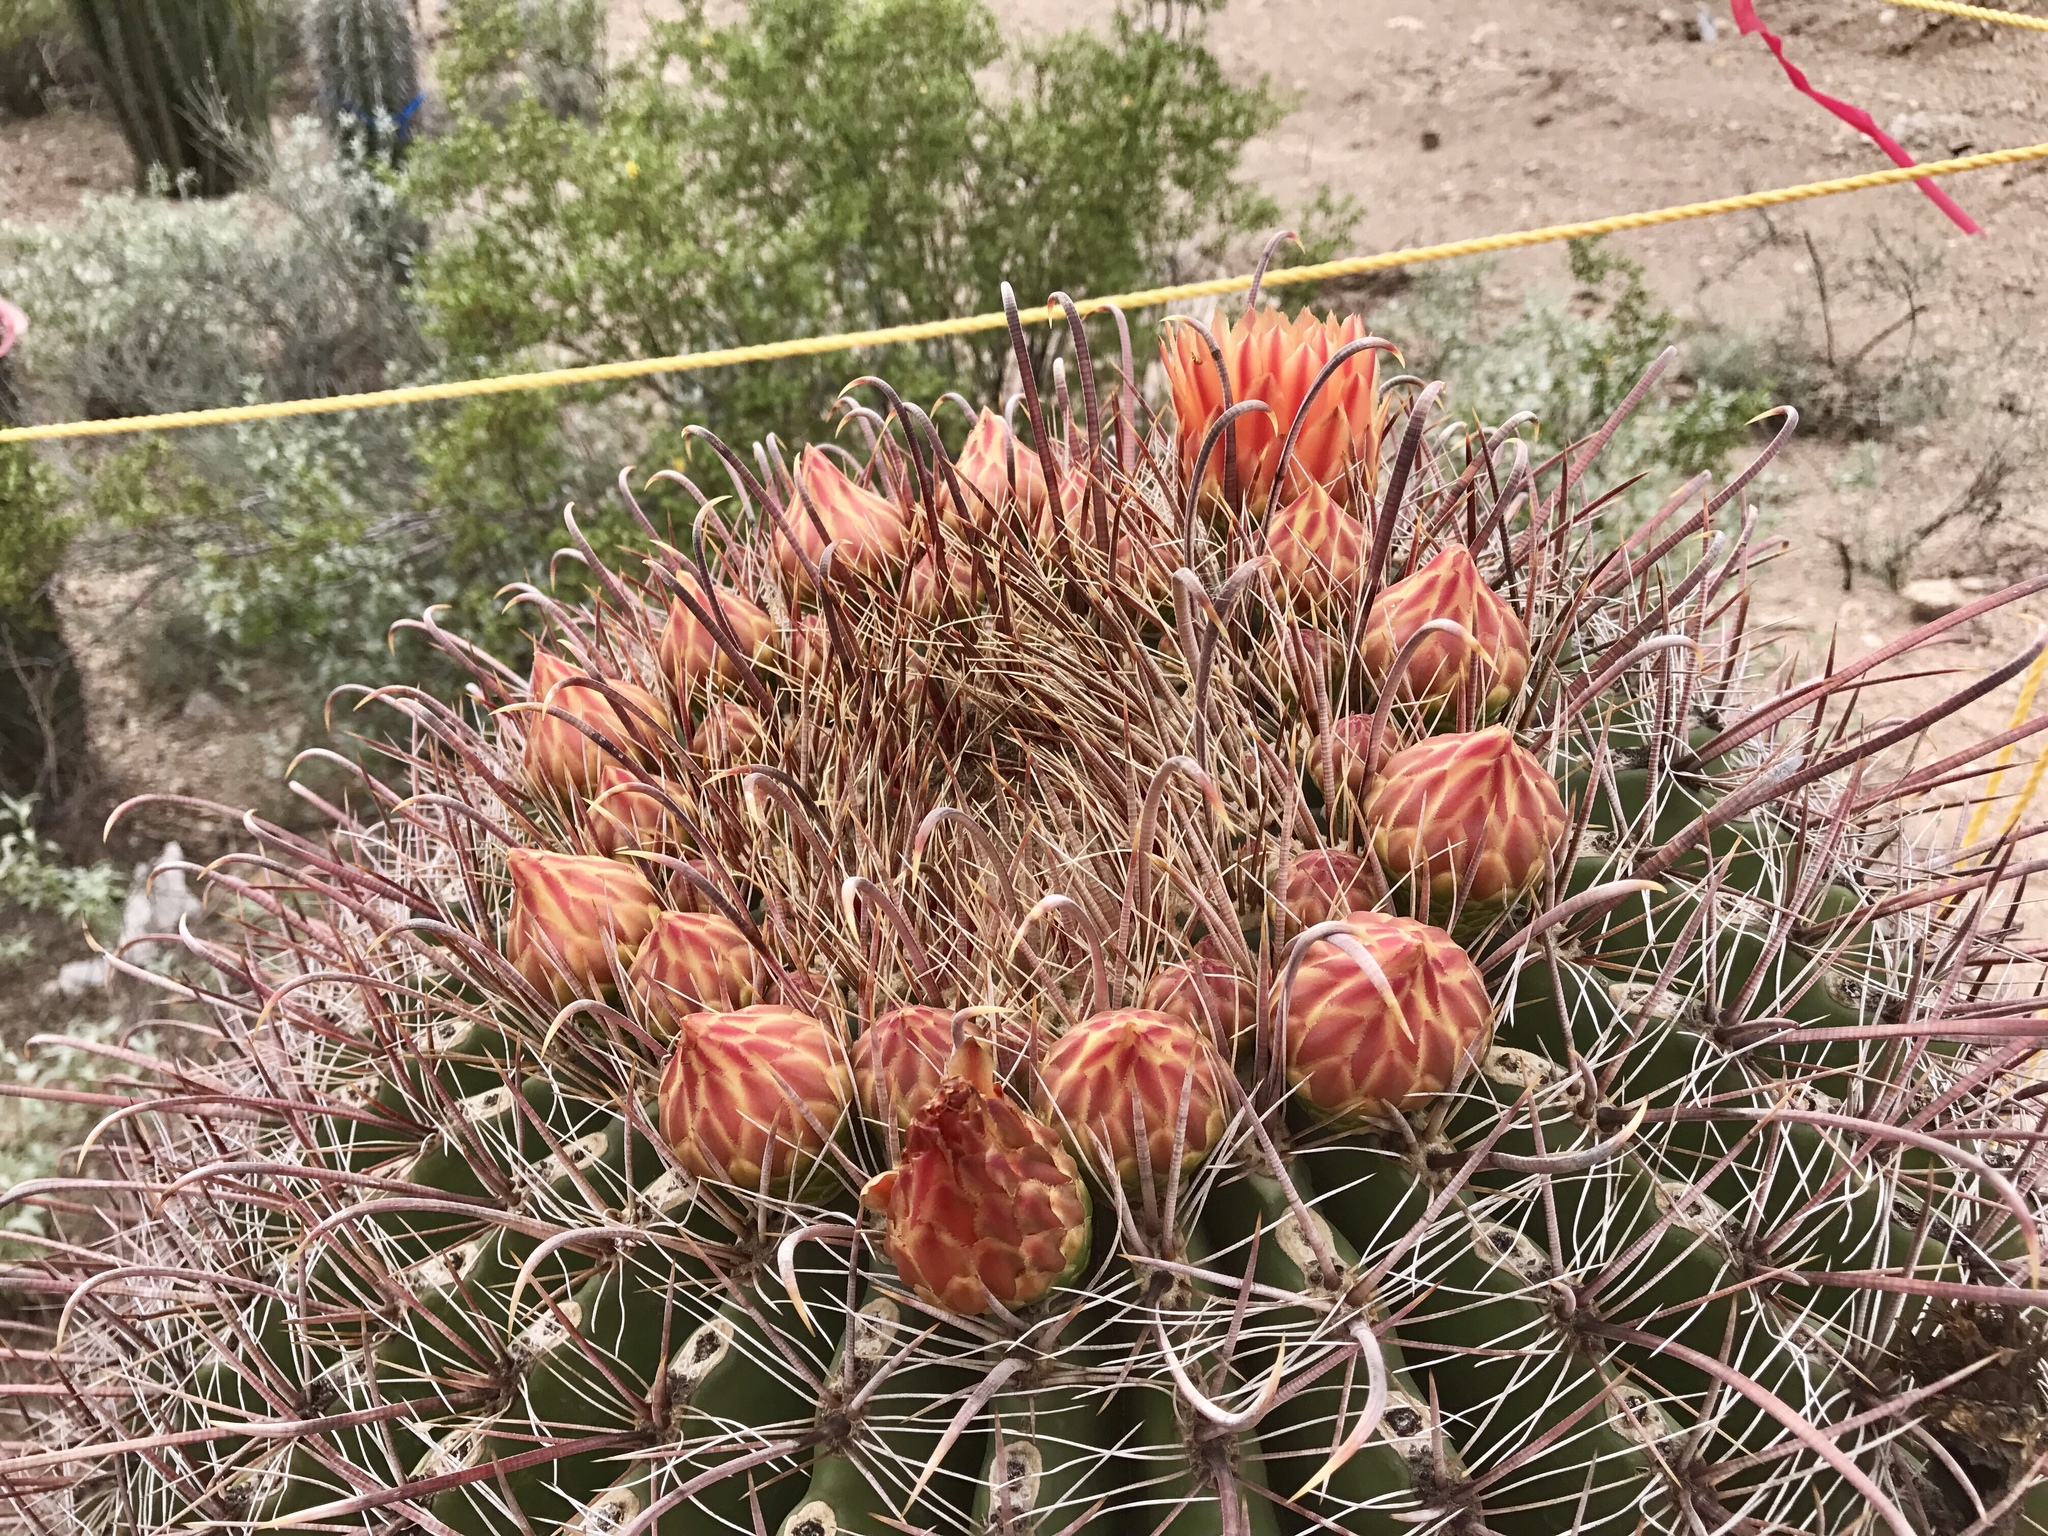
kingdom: Plantae
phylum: Tracheophyta
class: Magnoliopsida
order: Caryophyllales
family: Cactaceae
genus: Ferocactus
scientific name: Ferocactus wislizeni
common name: Candy barrel cactus
